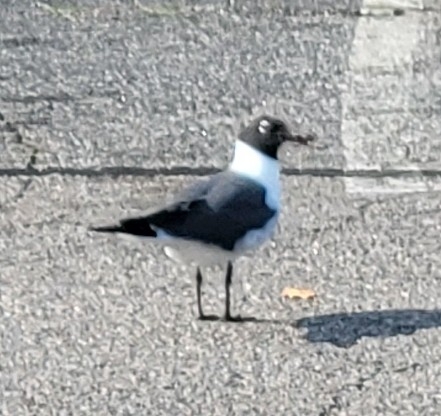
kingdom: Animalia
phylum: Chordata
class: Aves
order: Charadriiformes
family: Laridae
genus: Leucophaeus
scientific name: Leucophaeus atricilla
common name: Laughing gull
